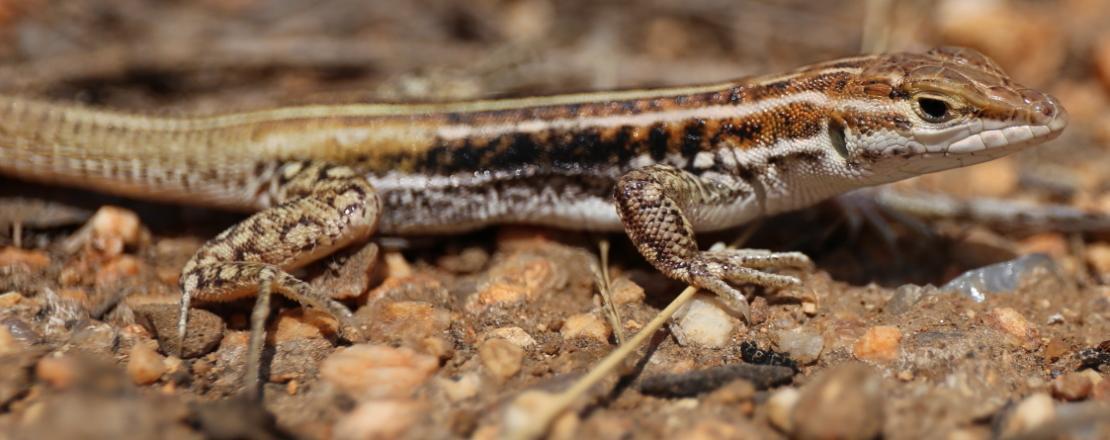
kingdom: Animalia
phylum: Chordata
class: Squamata
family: Lacertidae
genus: Heliobolus
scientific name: Heliobolus lugubris
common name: Bushveld lizard
